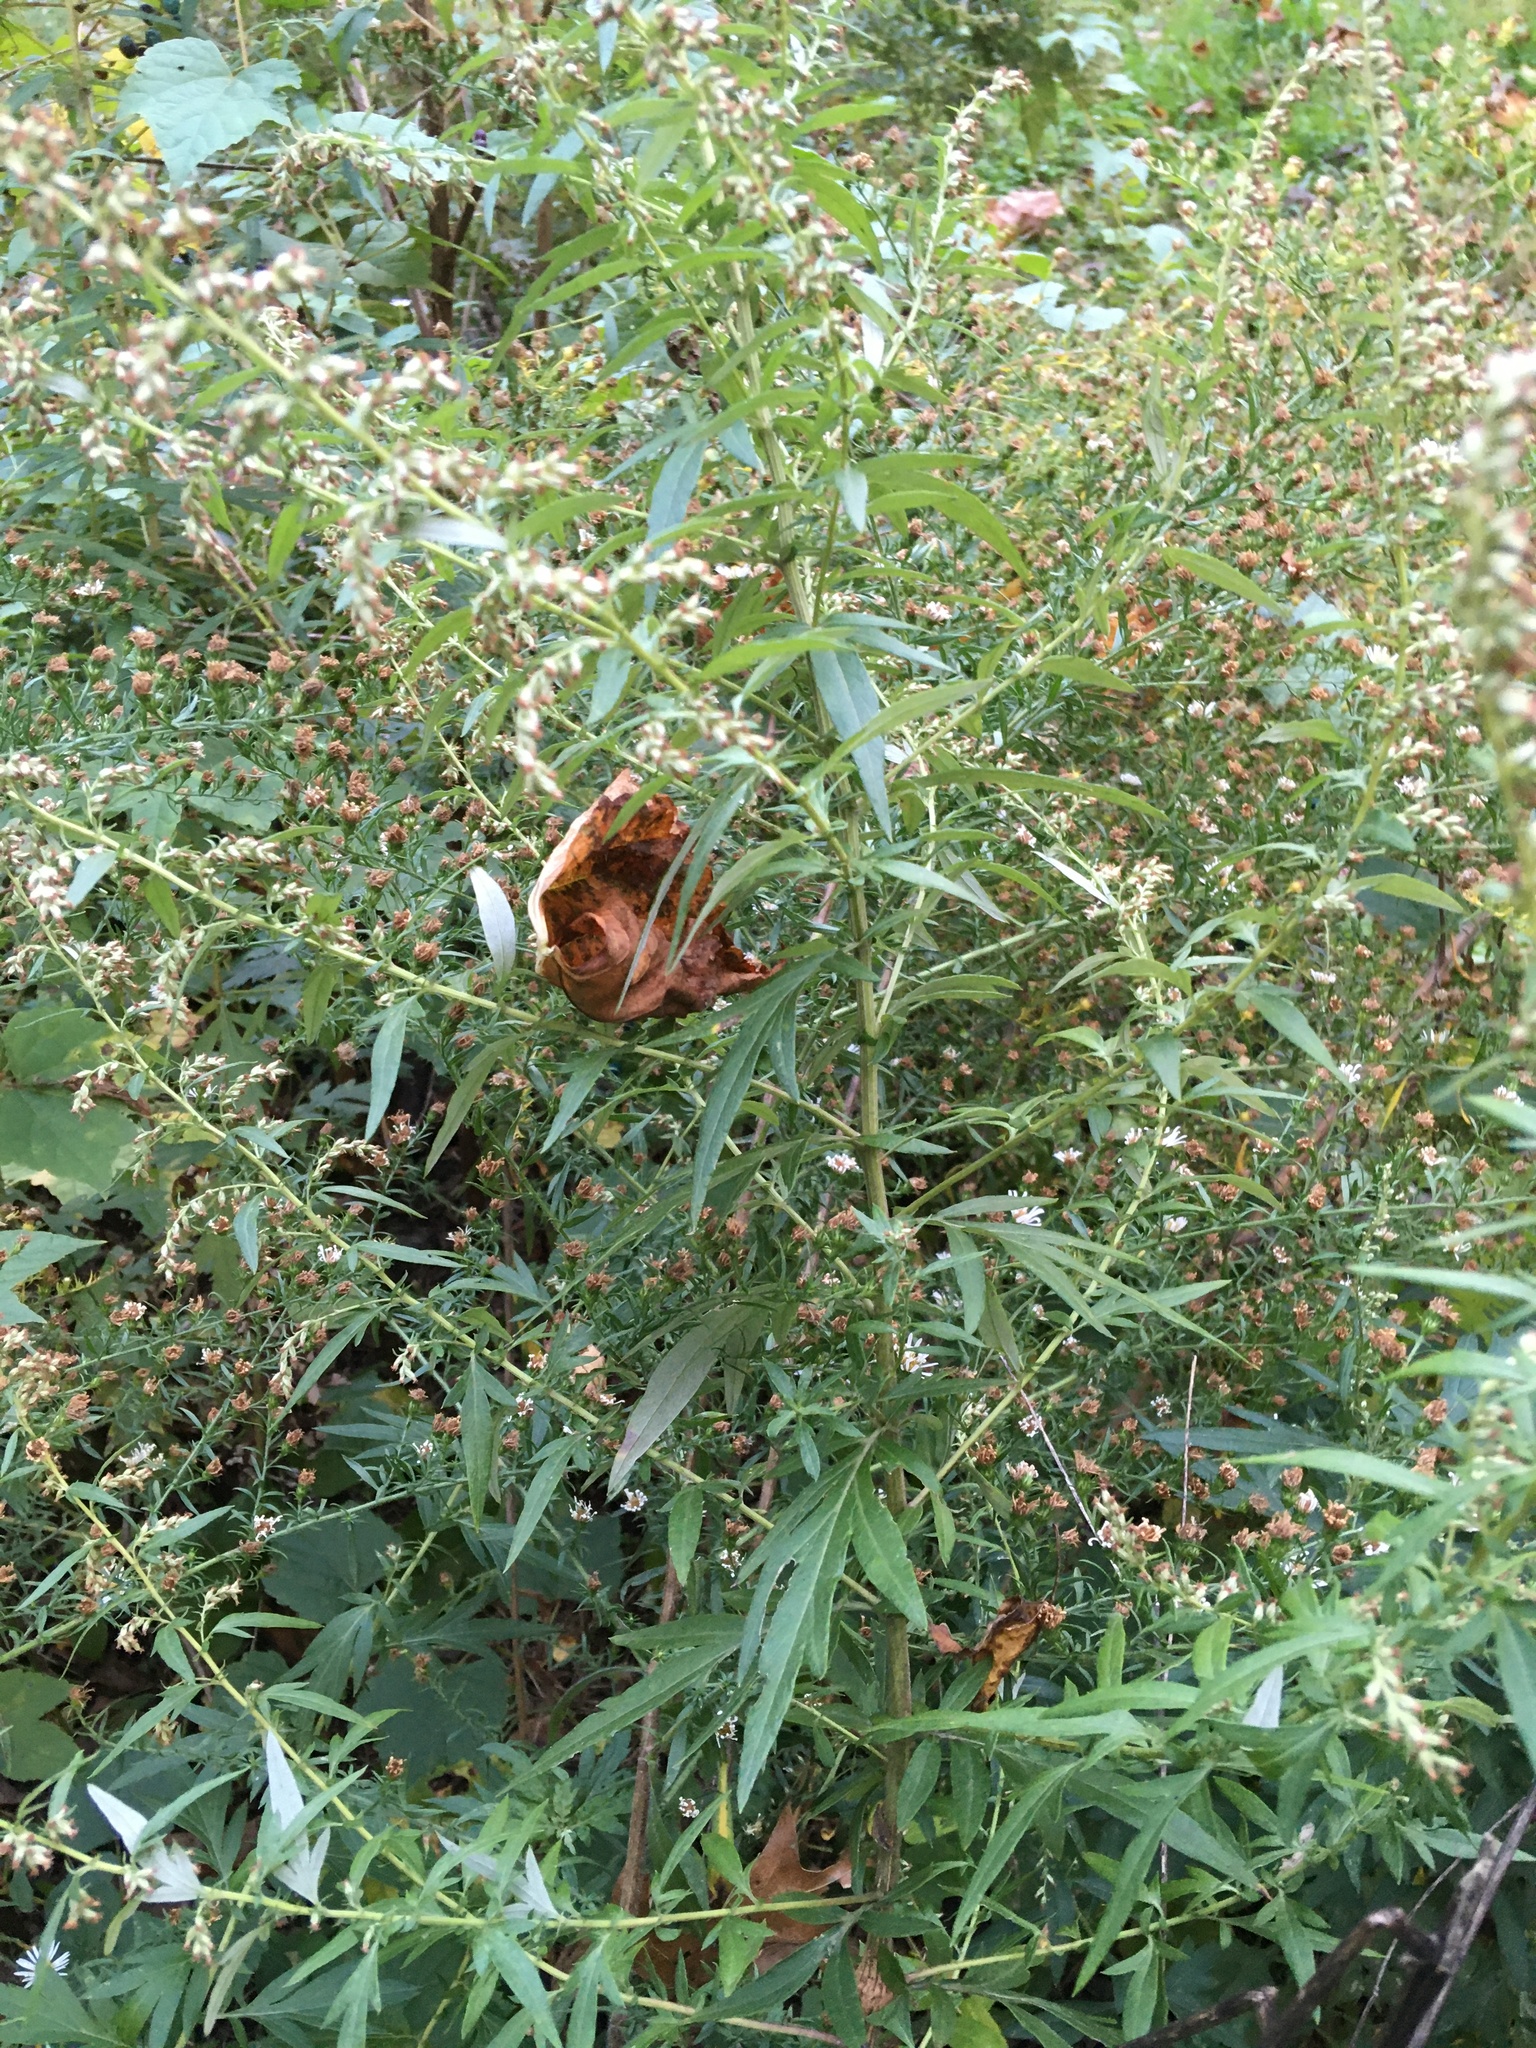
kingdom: Plantae
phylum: Tracheophyta
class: Magnoliopsida
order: Asterales
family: Asteraceae
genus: Artemisia
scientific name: Artemisia vulgaris
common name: Mugwort
